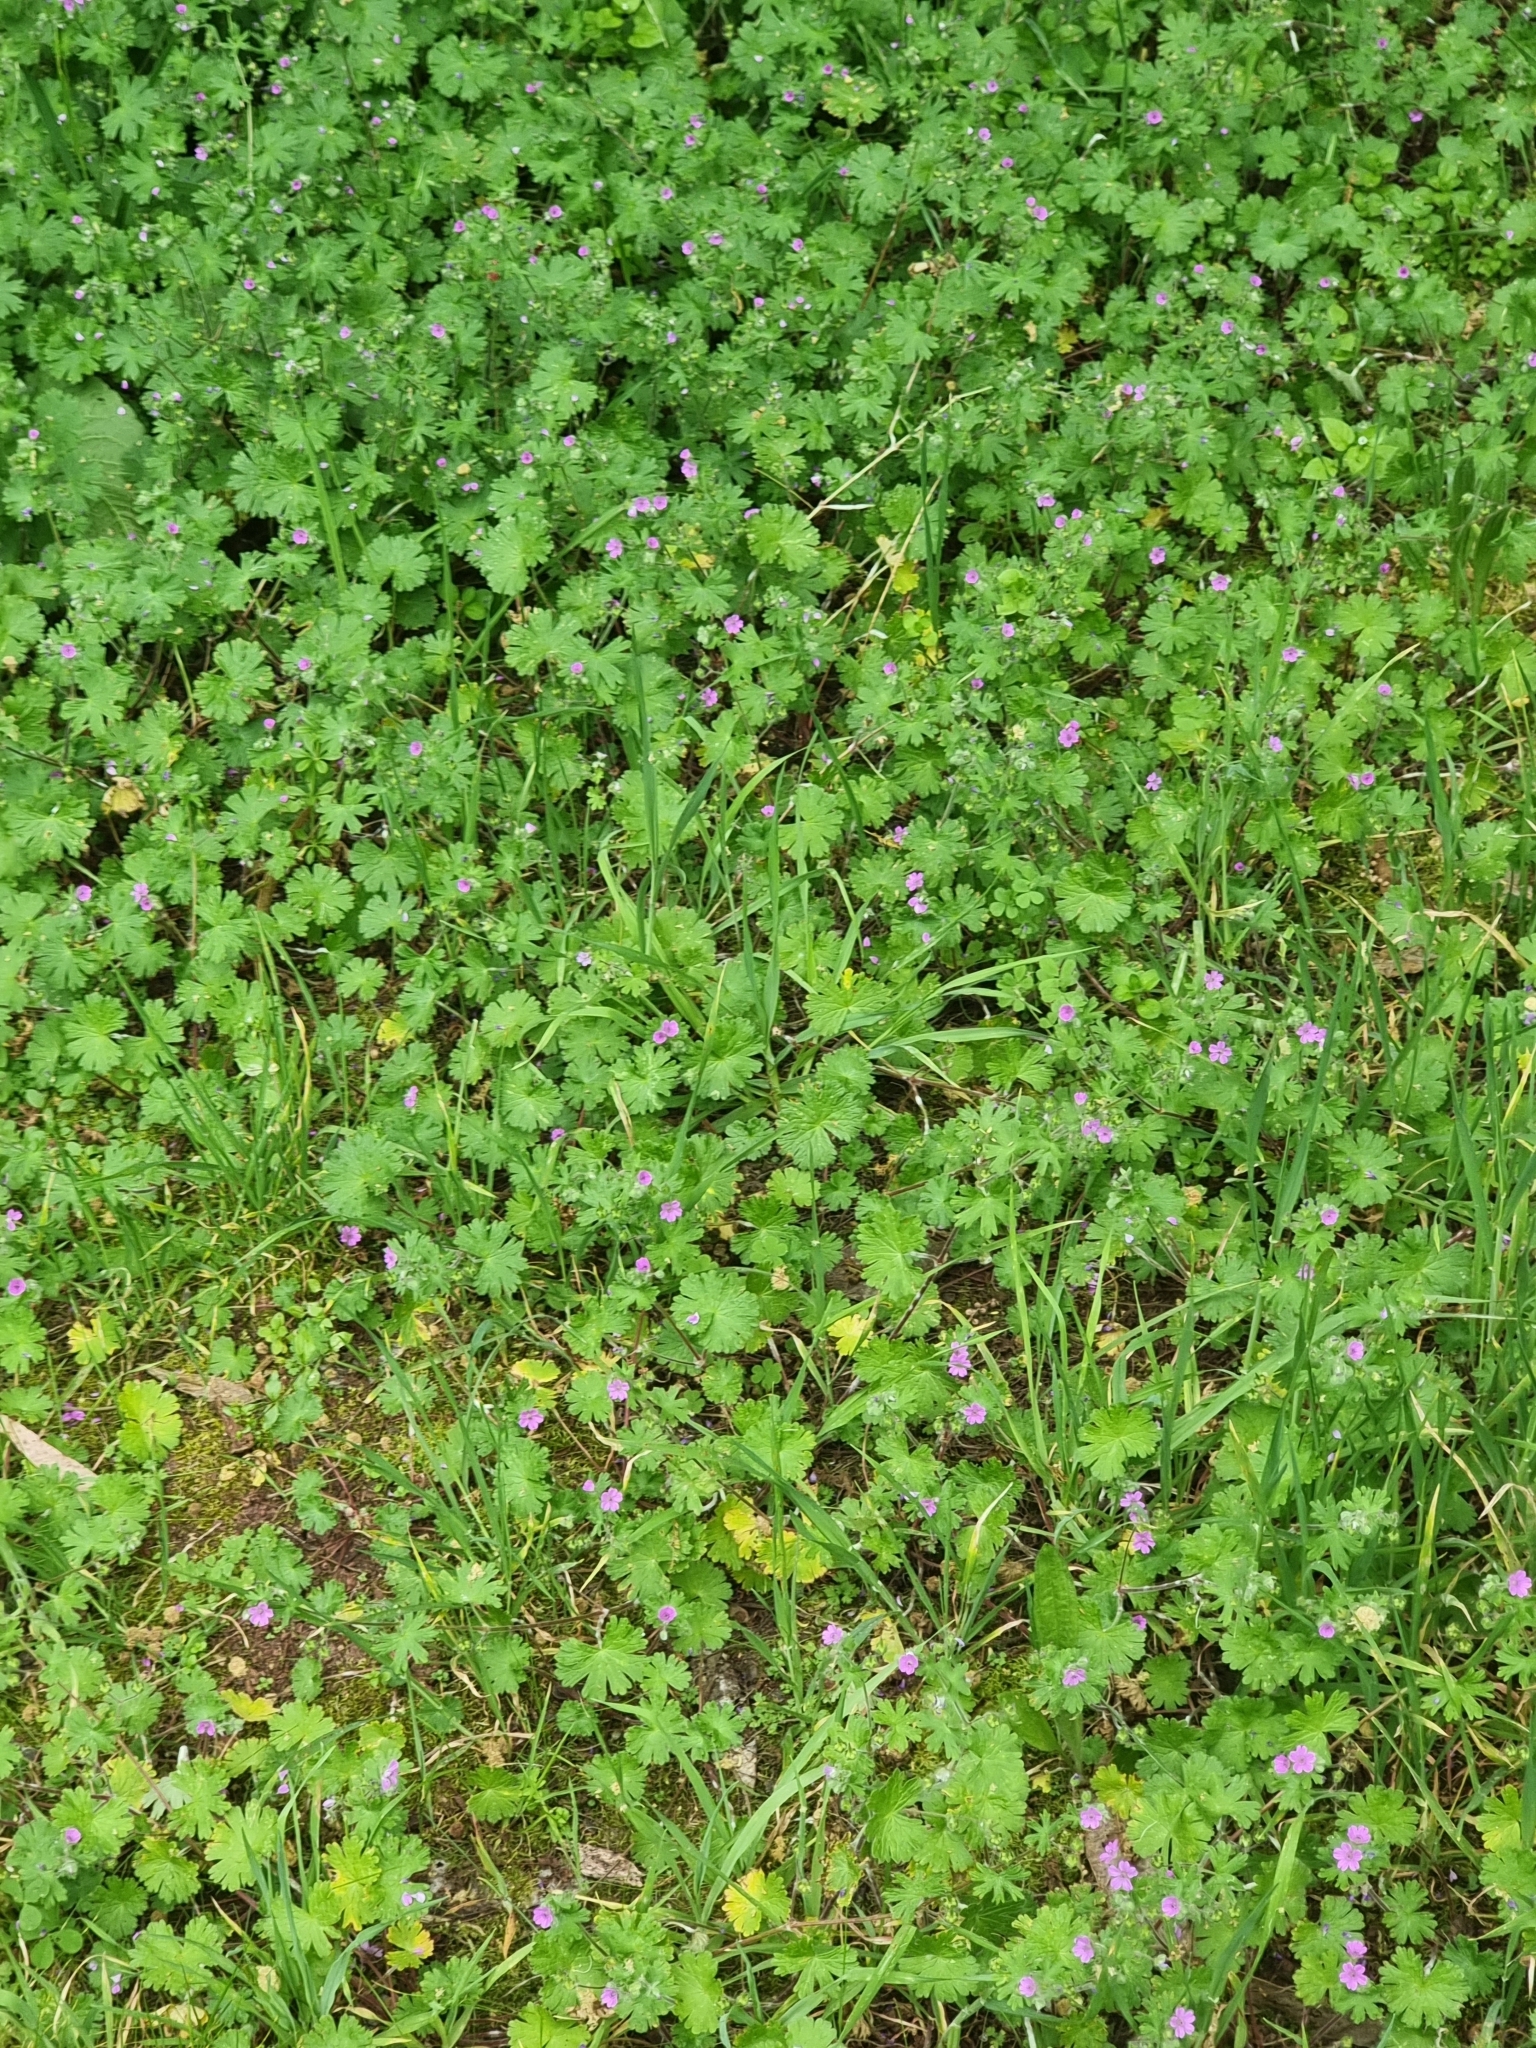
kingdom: Plantae
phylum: Tracheophyta
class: Magnoliopsida
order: Geraniales
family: Geraniaceae
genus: Geranium
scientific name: Geranium molle
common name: Dove's-foot crane's-bill
